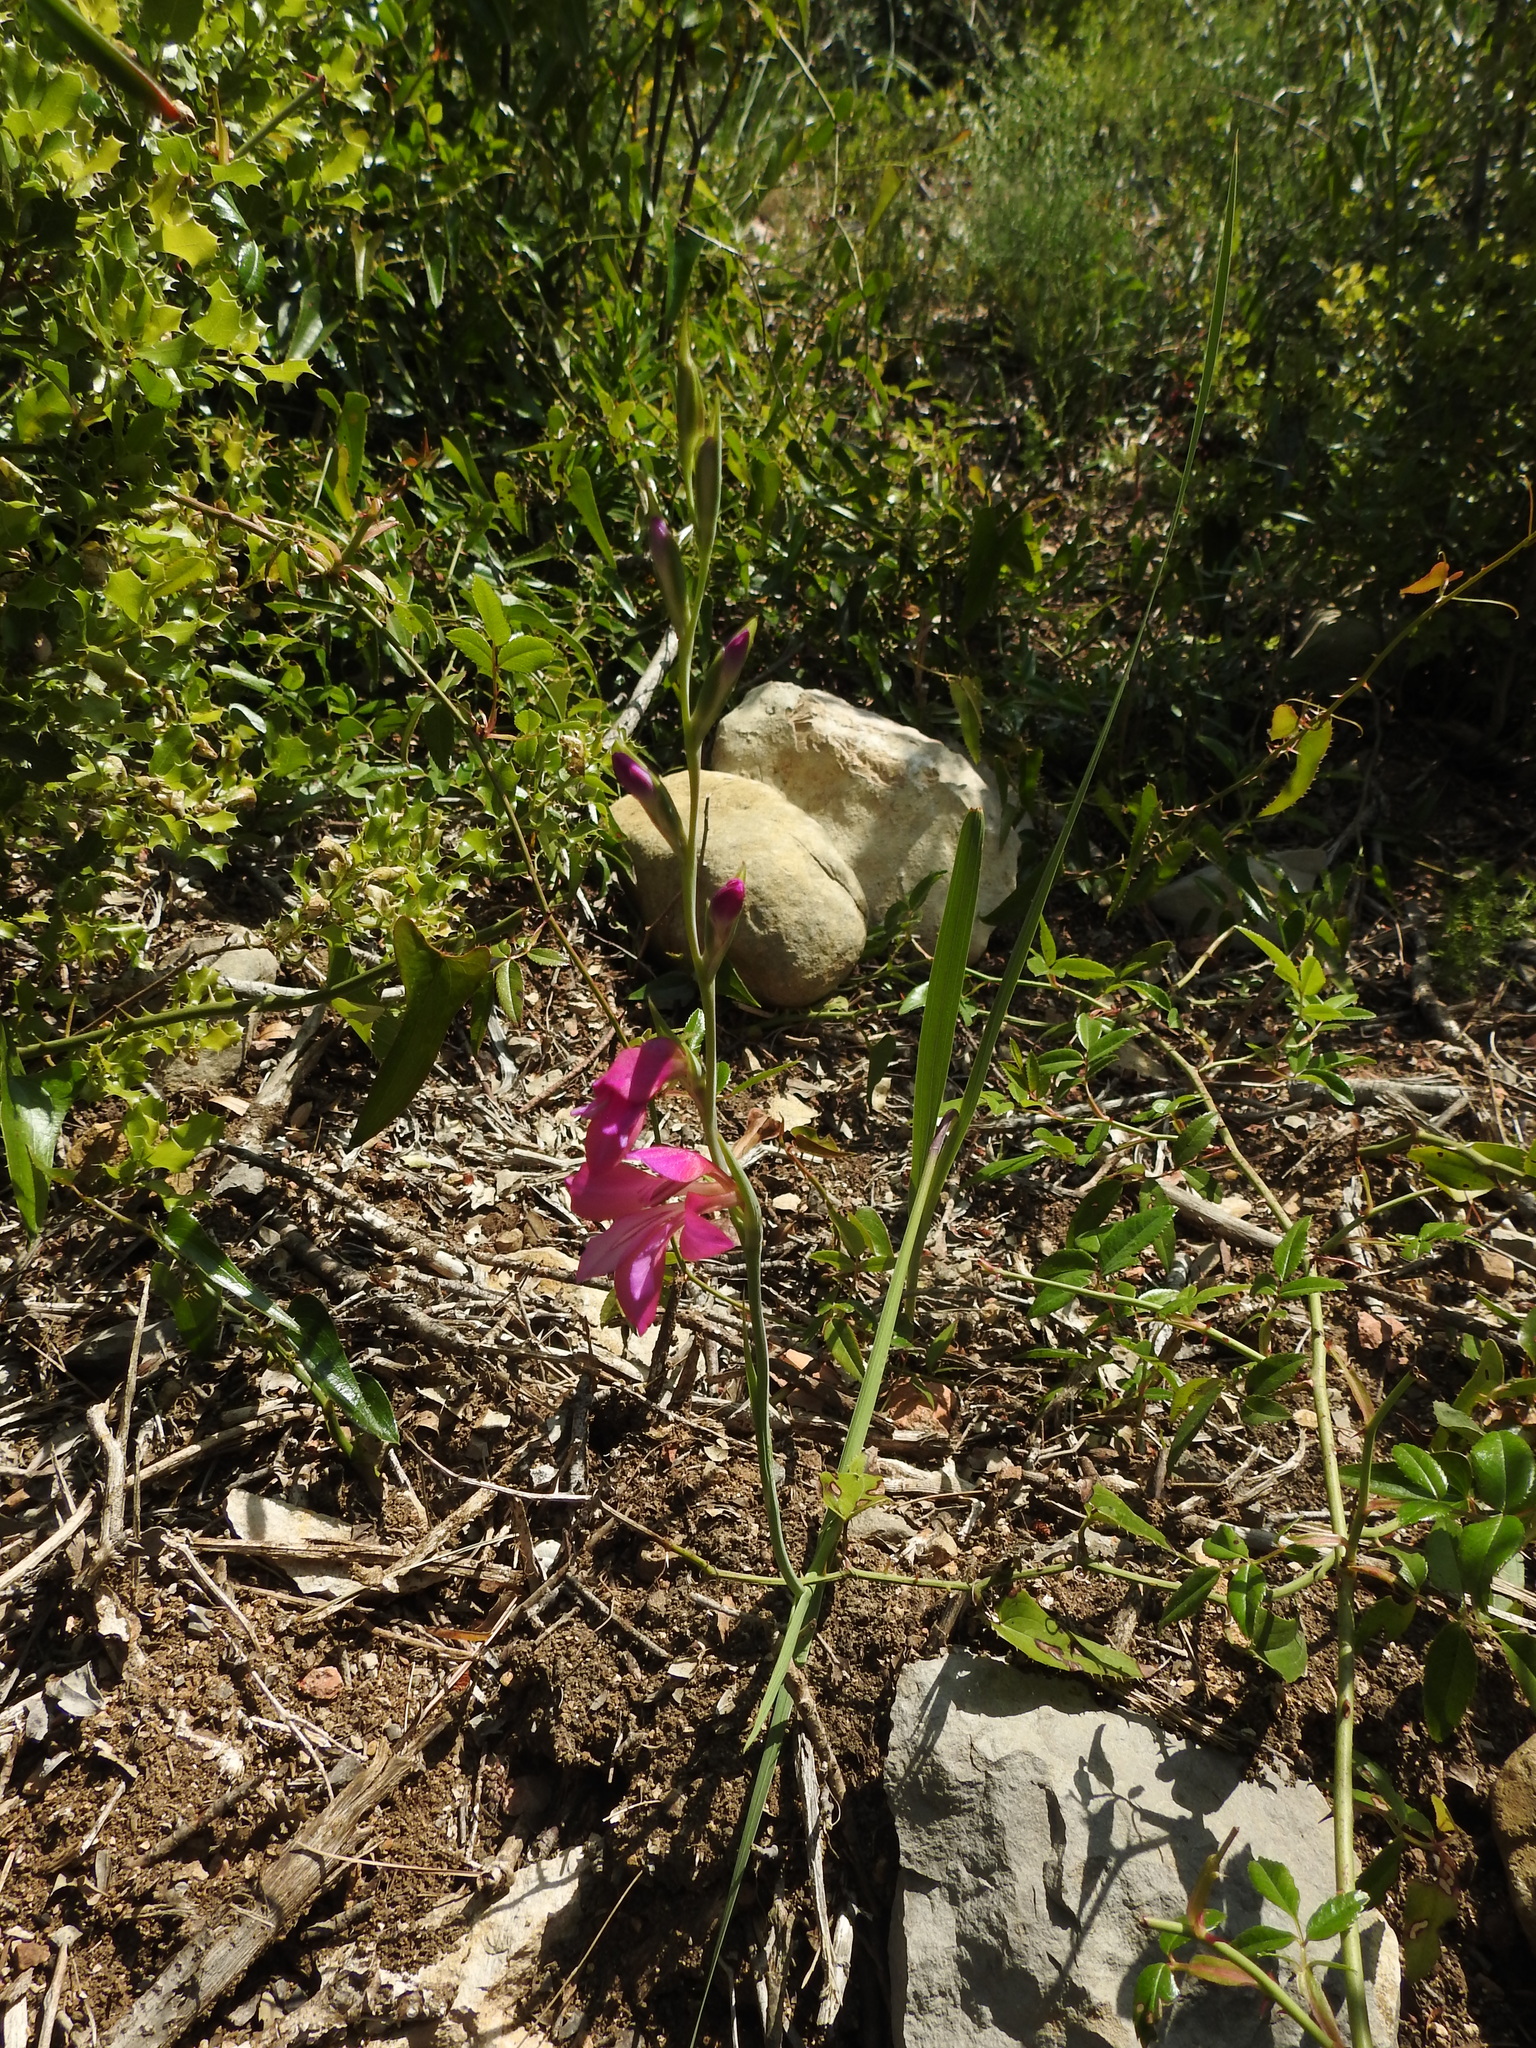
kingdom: Plantae
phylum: Tracheophyta
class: Liliopsida
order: Asparagales
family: Iridaceae
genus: Gladiolus
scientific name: Gladiolus dubius
